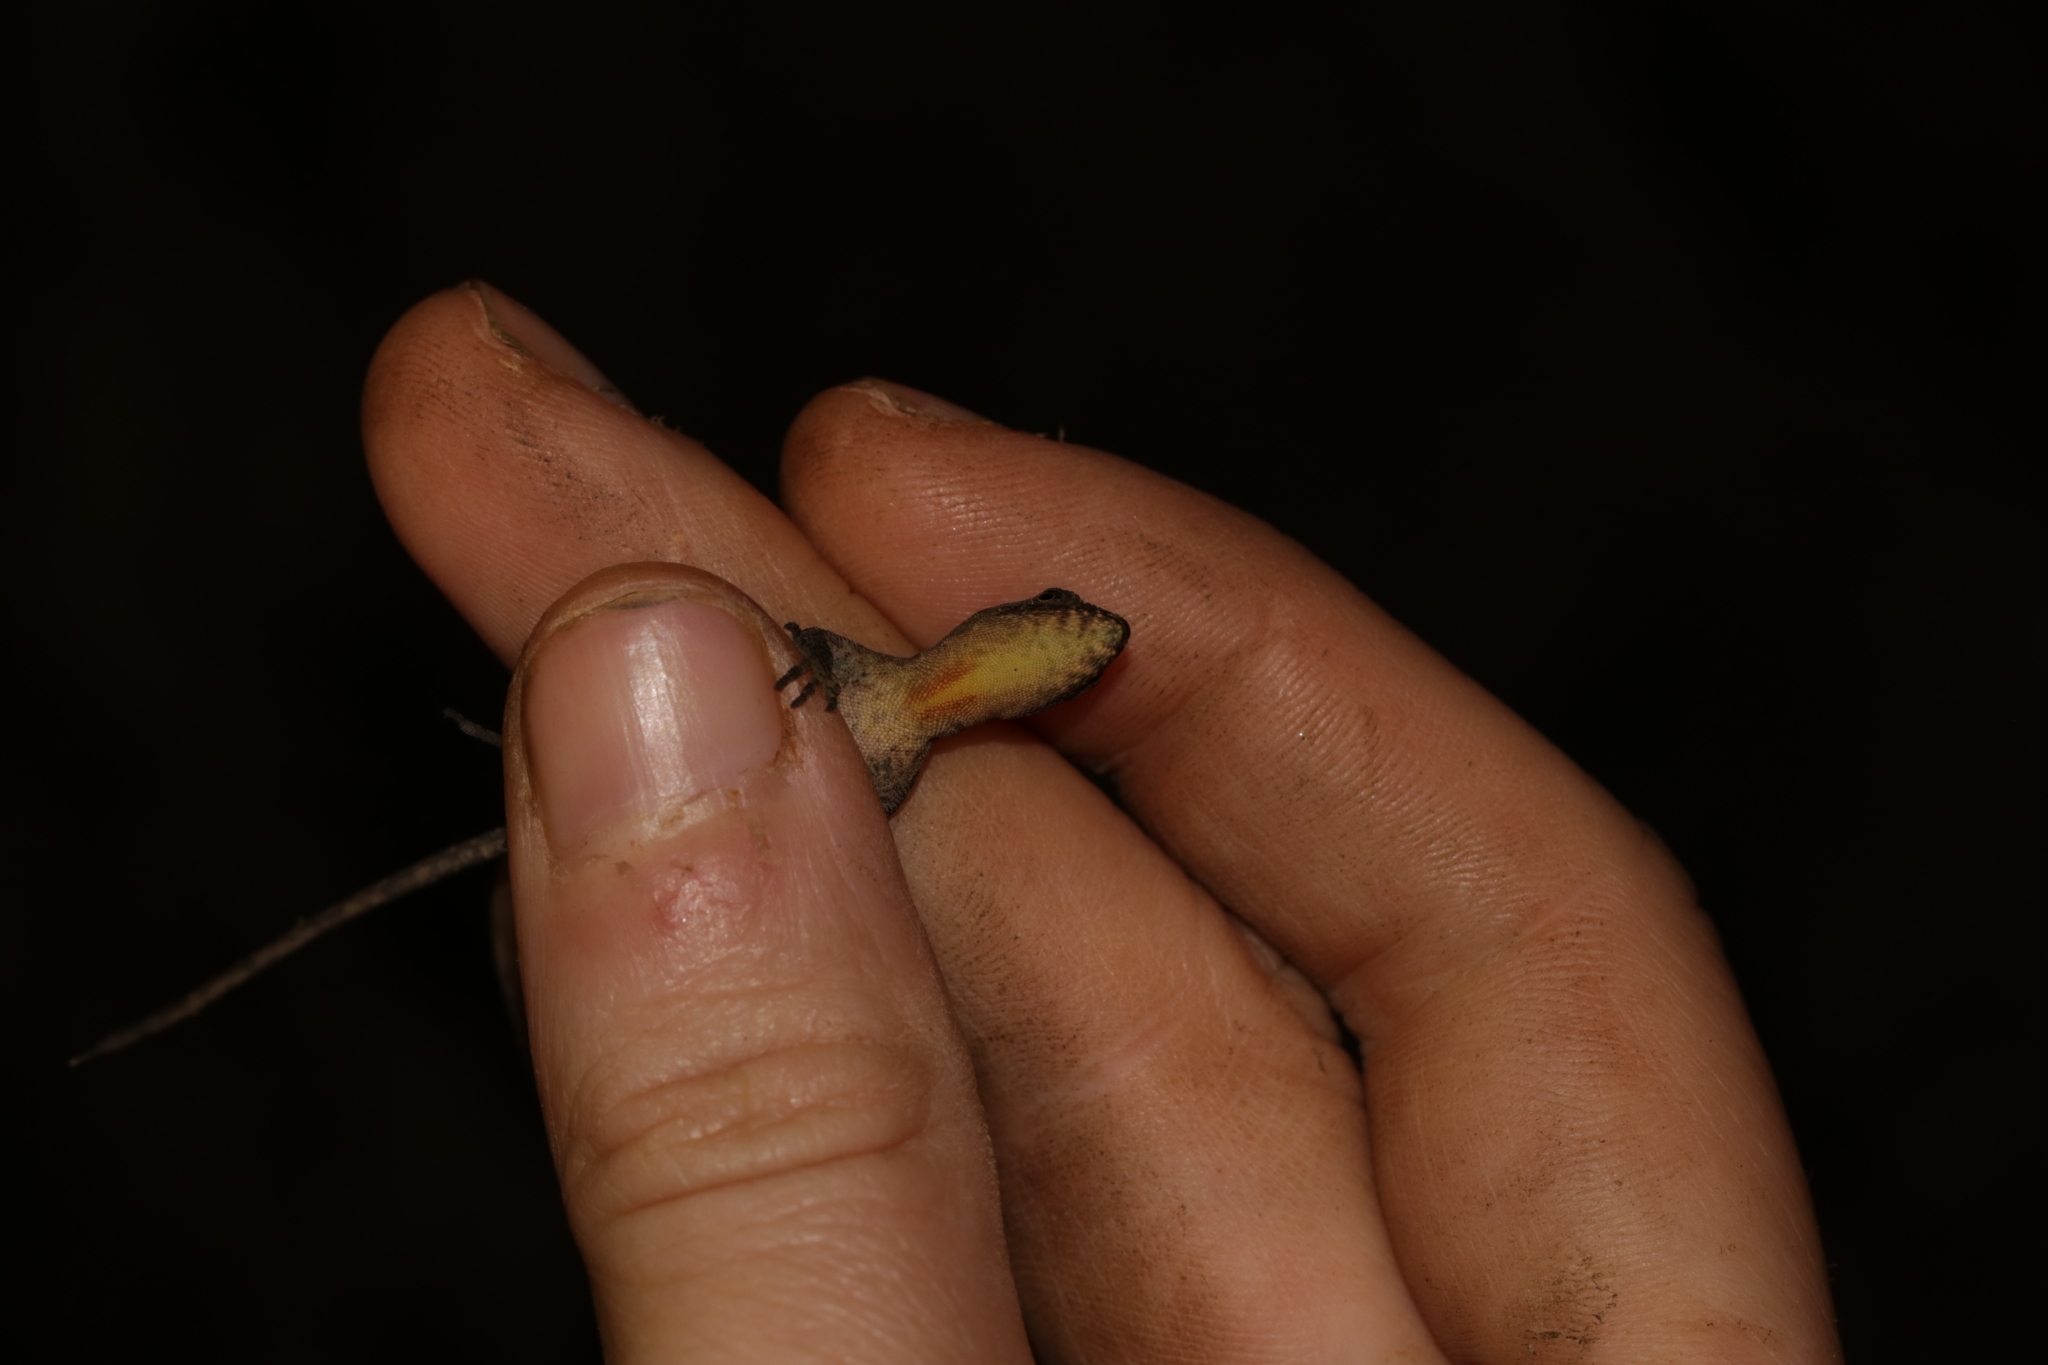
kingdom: Animalia
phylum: Chordata
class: Squamata
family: Dactyloidae
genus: Anolis
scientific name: Anolis humilis
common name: Humble anole
